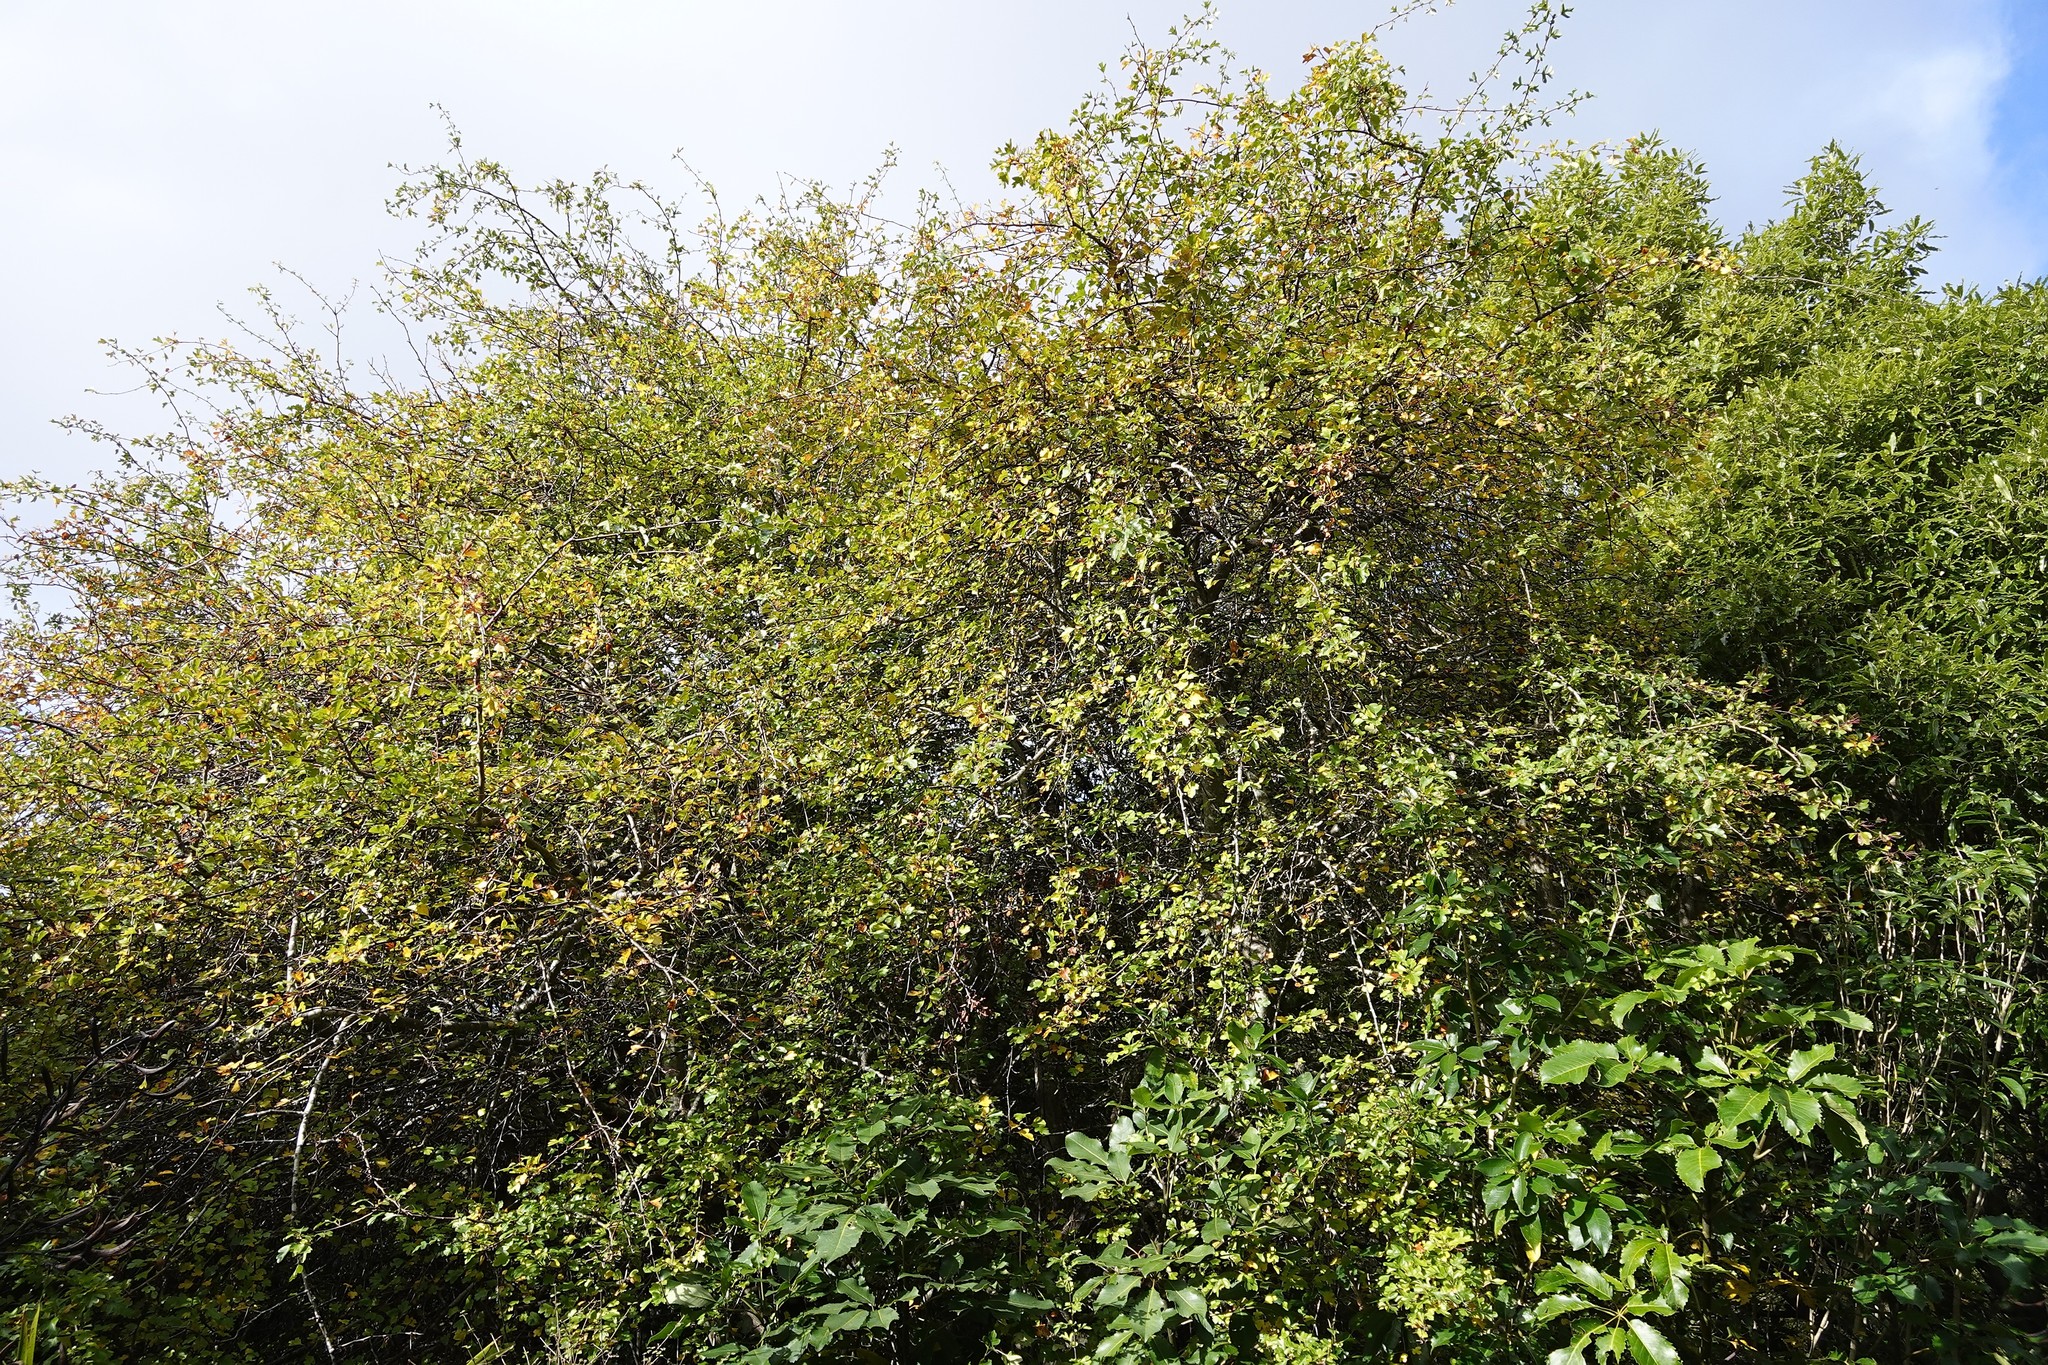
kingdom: Plantae
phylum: Tracheophyta
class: Magnoliopsida
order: Rosales
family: Rosaceae
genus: Crataegus
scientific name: Crataegus monogyna
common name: Hawthorn
